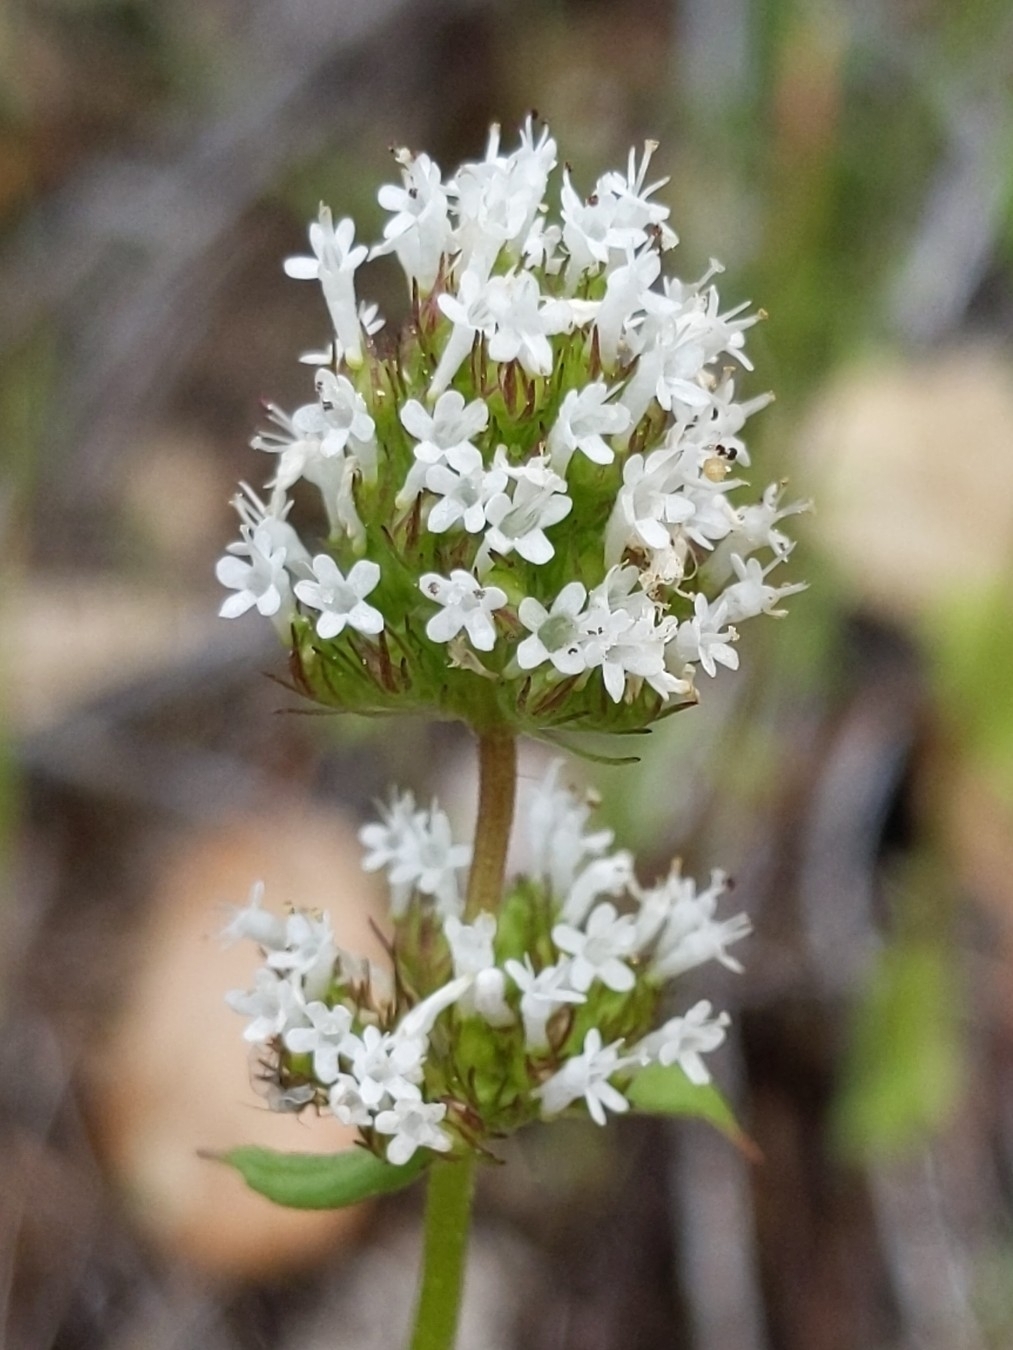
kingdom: Plantae
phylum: Tracheophyta
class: Magnoliopsida
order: Dipsacales
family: Caprifoliaceae
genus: Plectritis
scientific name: Plectritis macroptera
